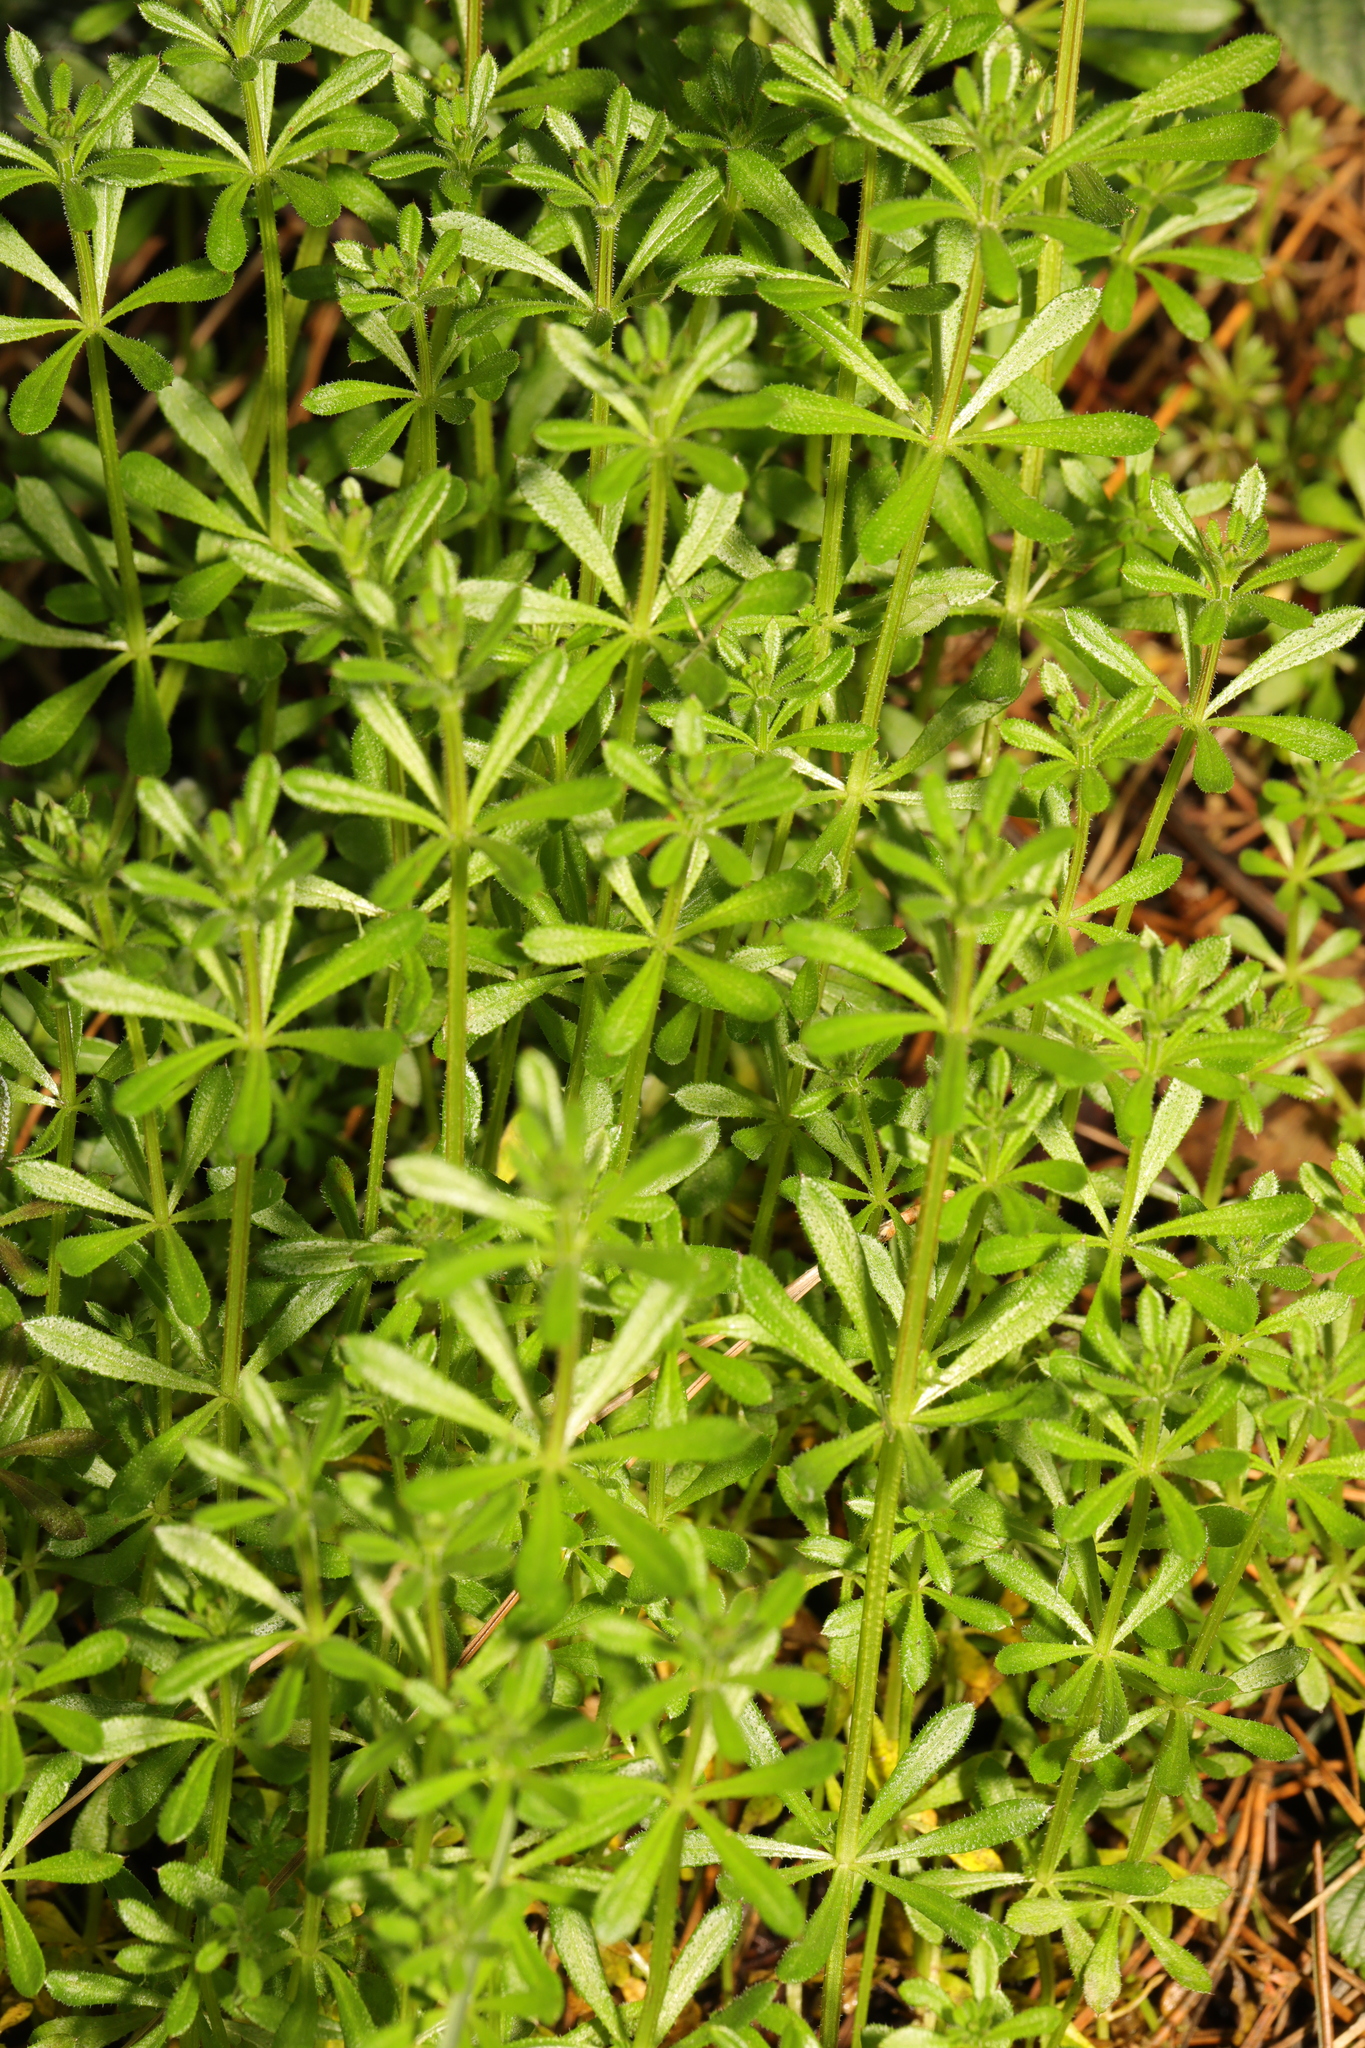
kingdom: Plantae
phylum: Tracheophyta
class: Magnoliopsida
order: Gentianales
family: Rubiaceae
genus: Galium
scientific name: Galium aparine
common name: Cleavers
